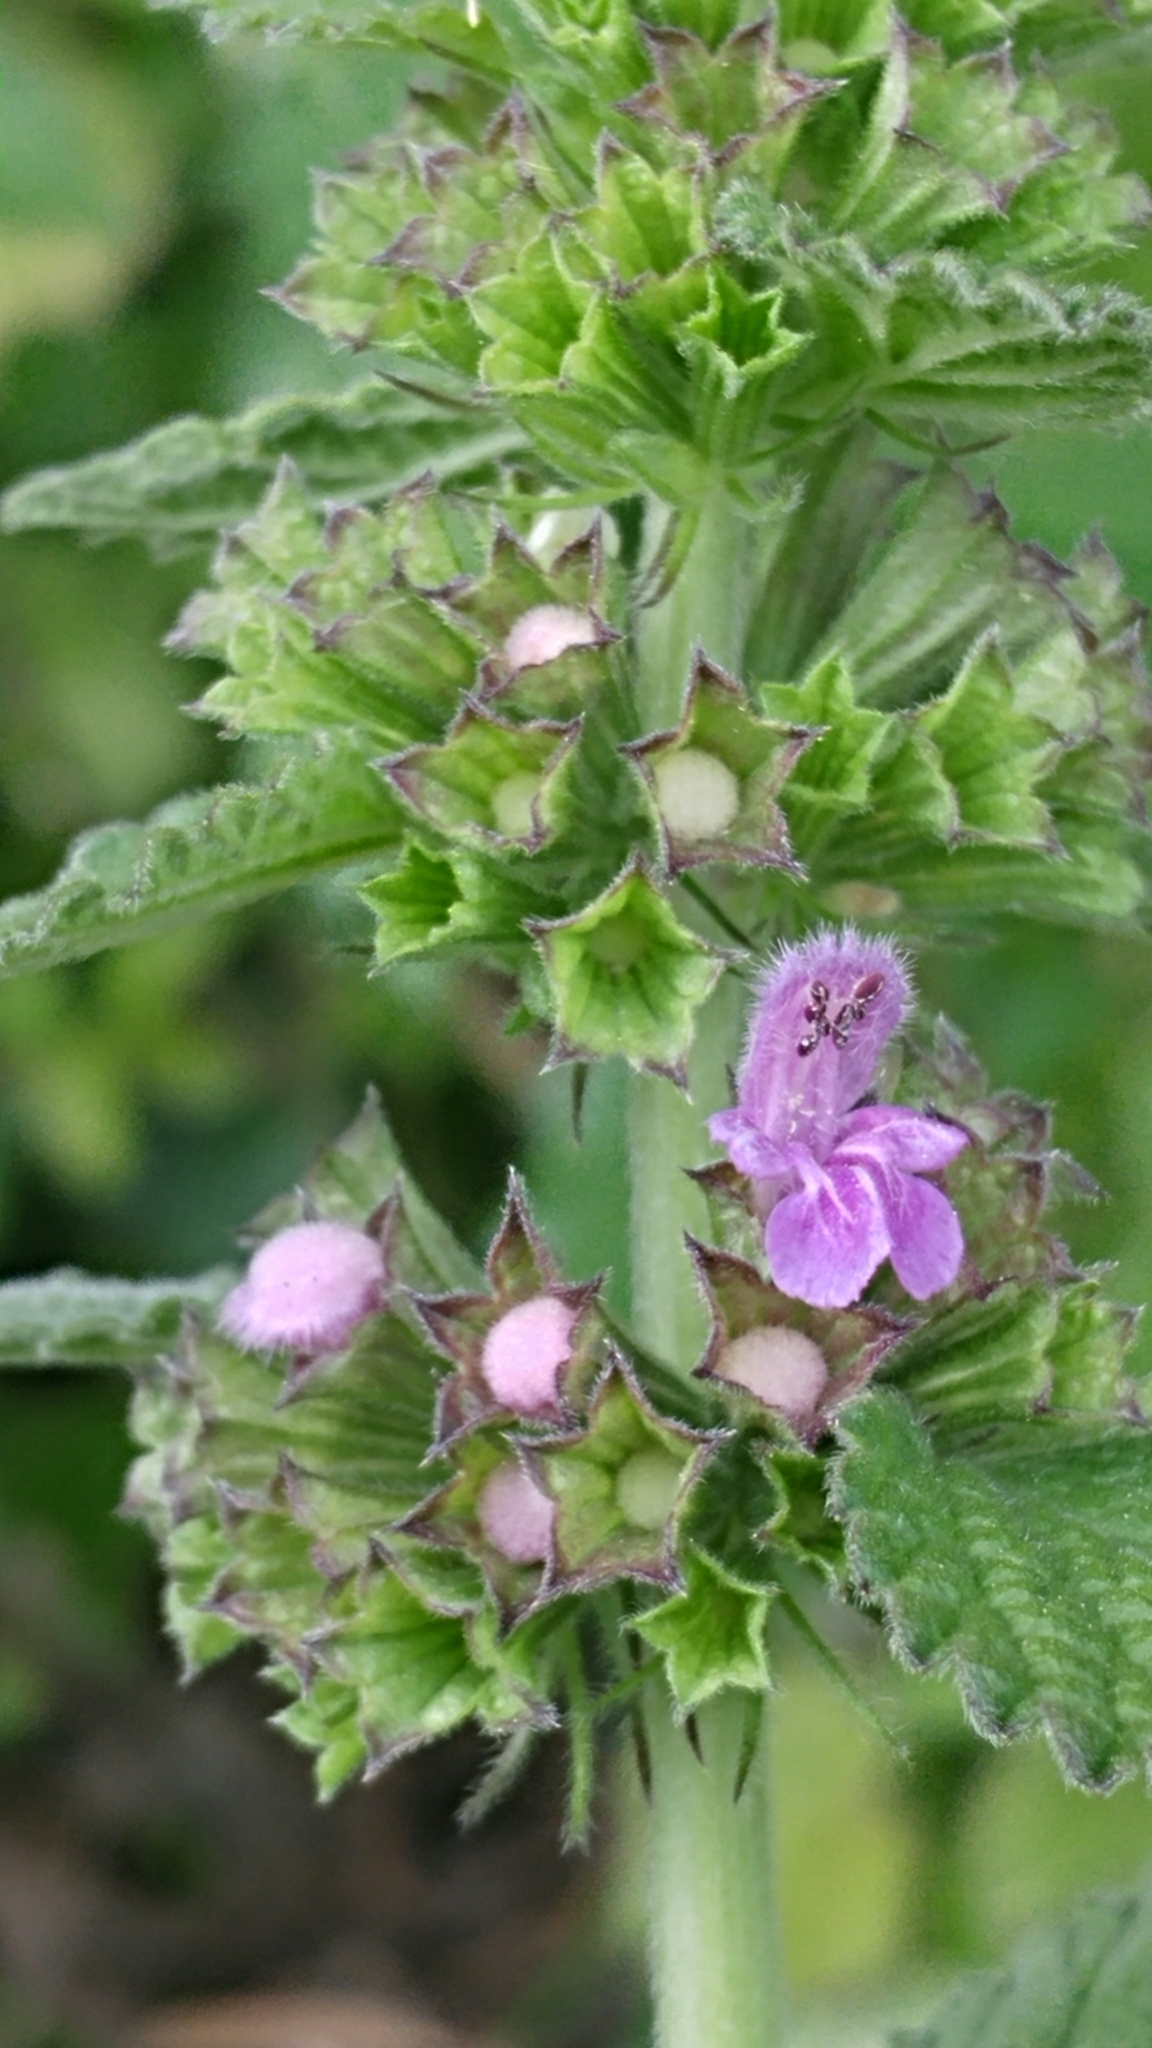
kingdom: Plantae
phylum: Tracheophyta
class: Magnoliopsida
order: Lamiales
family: Lamiaceae
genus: Ballota
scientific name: Ballota nigra
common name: Black horehound
